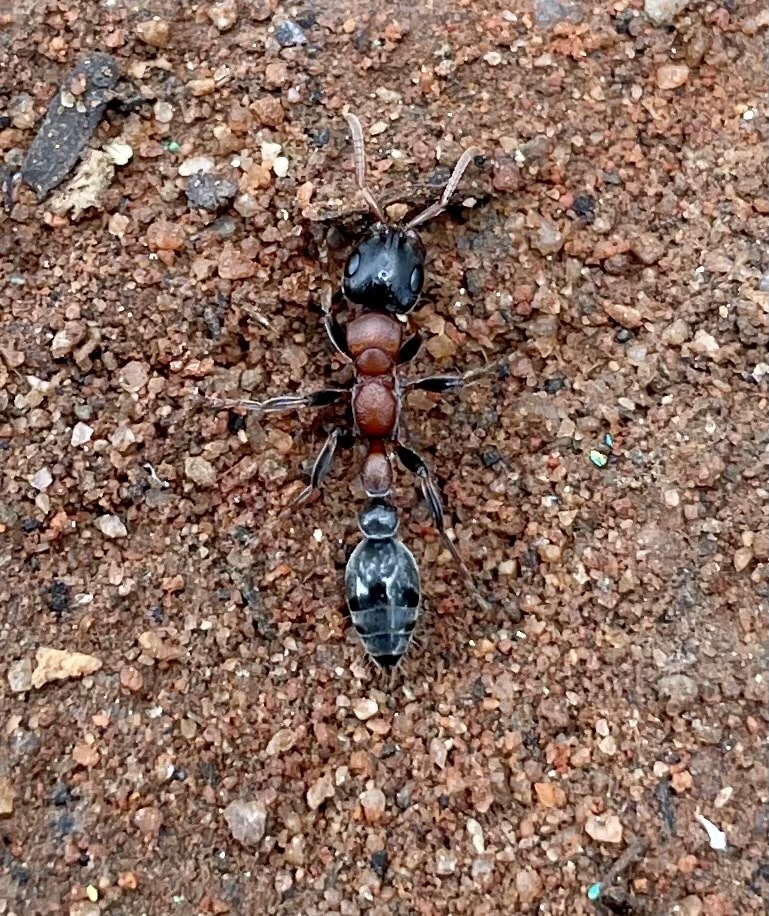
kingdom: Animalia
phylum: Arthropoda
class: Insecta
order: Hymenoptera
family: Formicidae
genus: Tetraponera
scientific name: Tetraponera rufonigra
